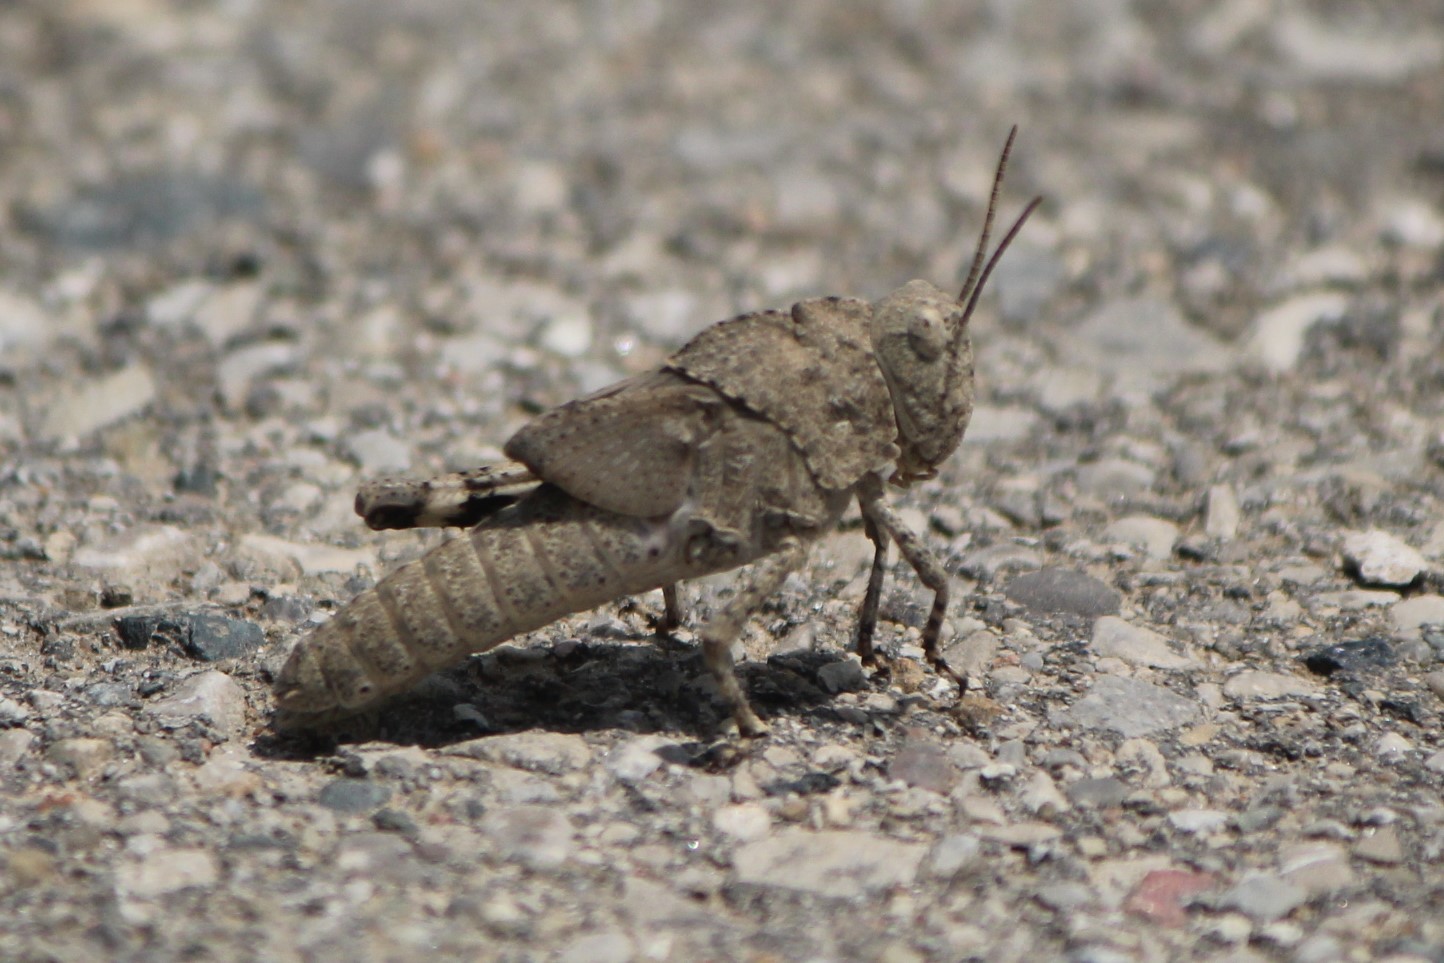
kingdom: Animalia
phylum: Arthropoda
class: Insecta
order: Orthoptera
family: Acrididae
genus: Dissosteira
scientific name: Dissosteira carolina
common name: Carolina grasshopper
